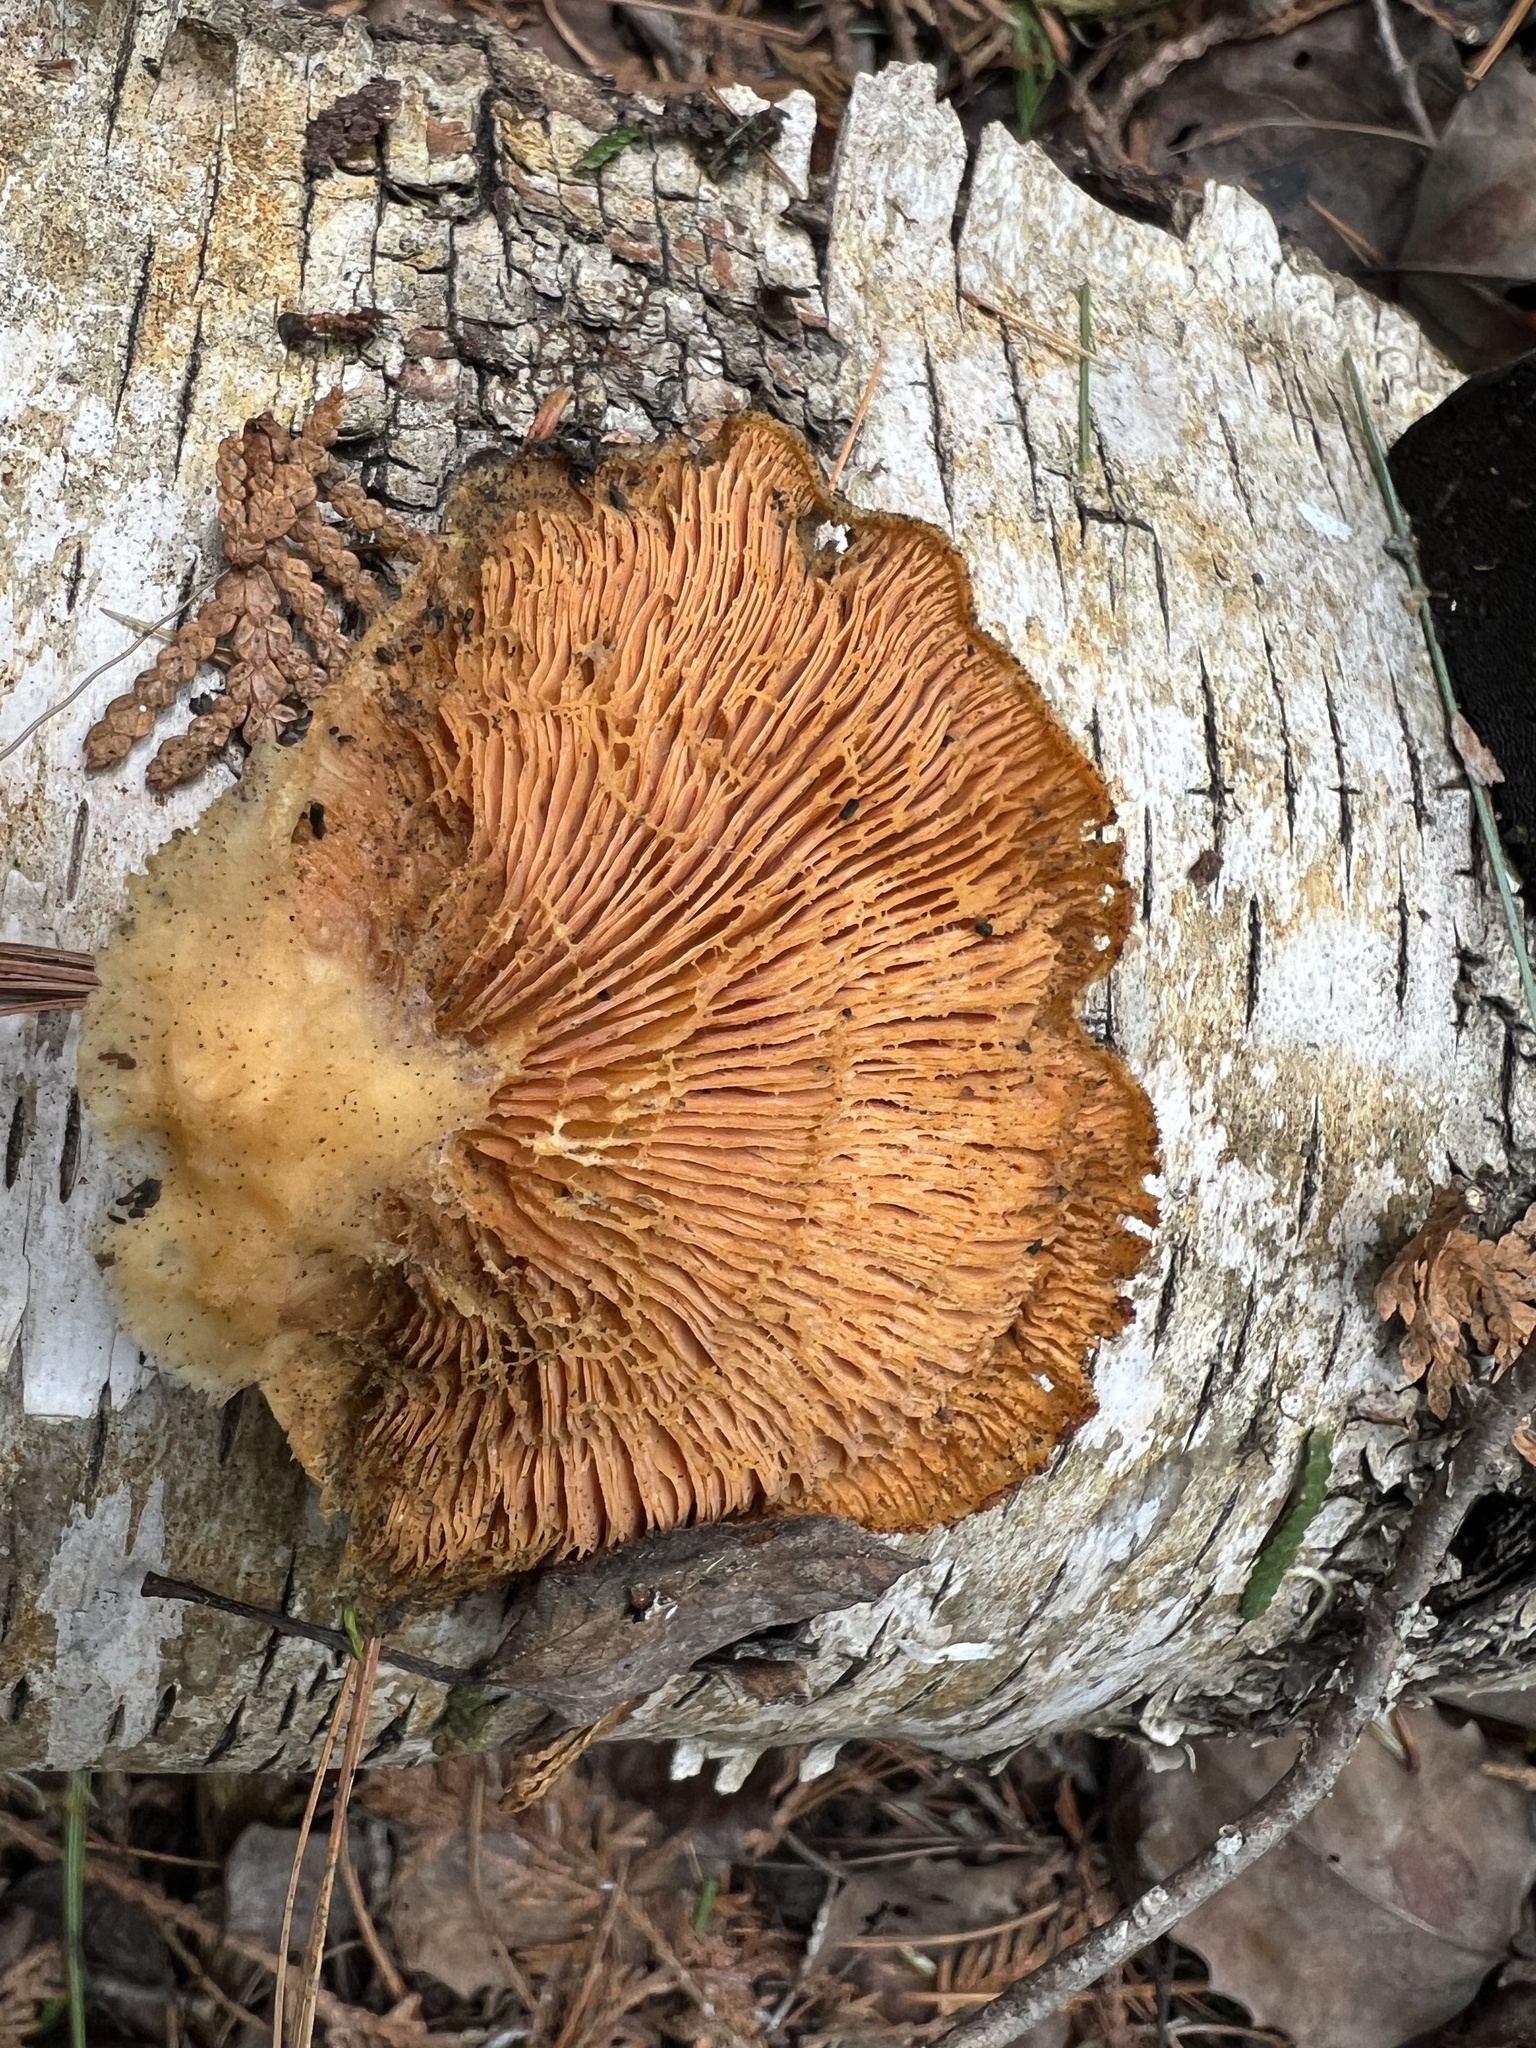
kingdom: Fungi
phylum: Basidiomycota
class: Agaricomycetes
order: Agaricales
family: Phyllotopsidaceae
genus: Phyllotopsis
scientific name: Phyllotopsis nidulans
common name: Orange mock oyster
